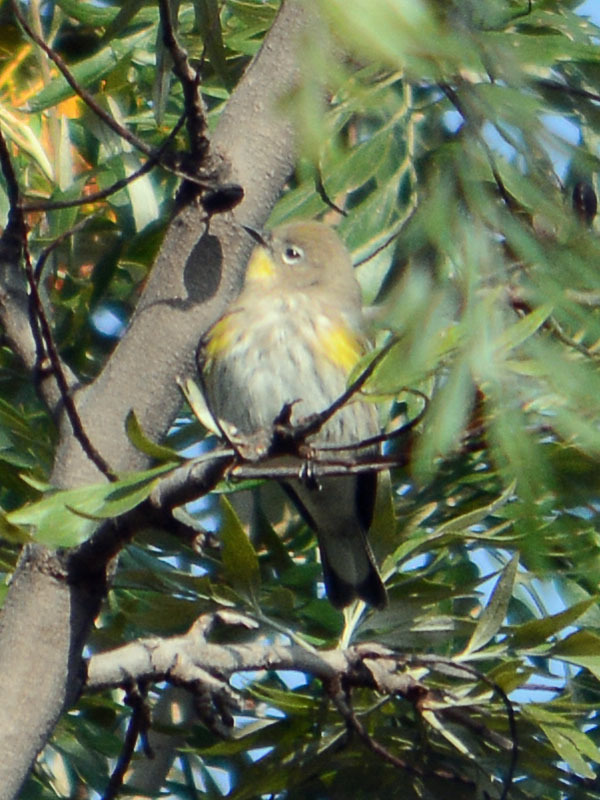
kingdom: Animalia
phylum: Chordata
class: Aves
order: Passeriformes
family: Parulidae
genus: Setophaga
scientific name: Setophaga auduboni
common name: Audubon's warbler
